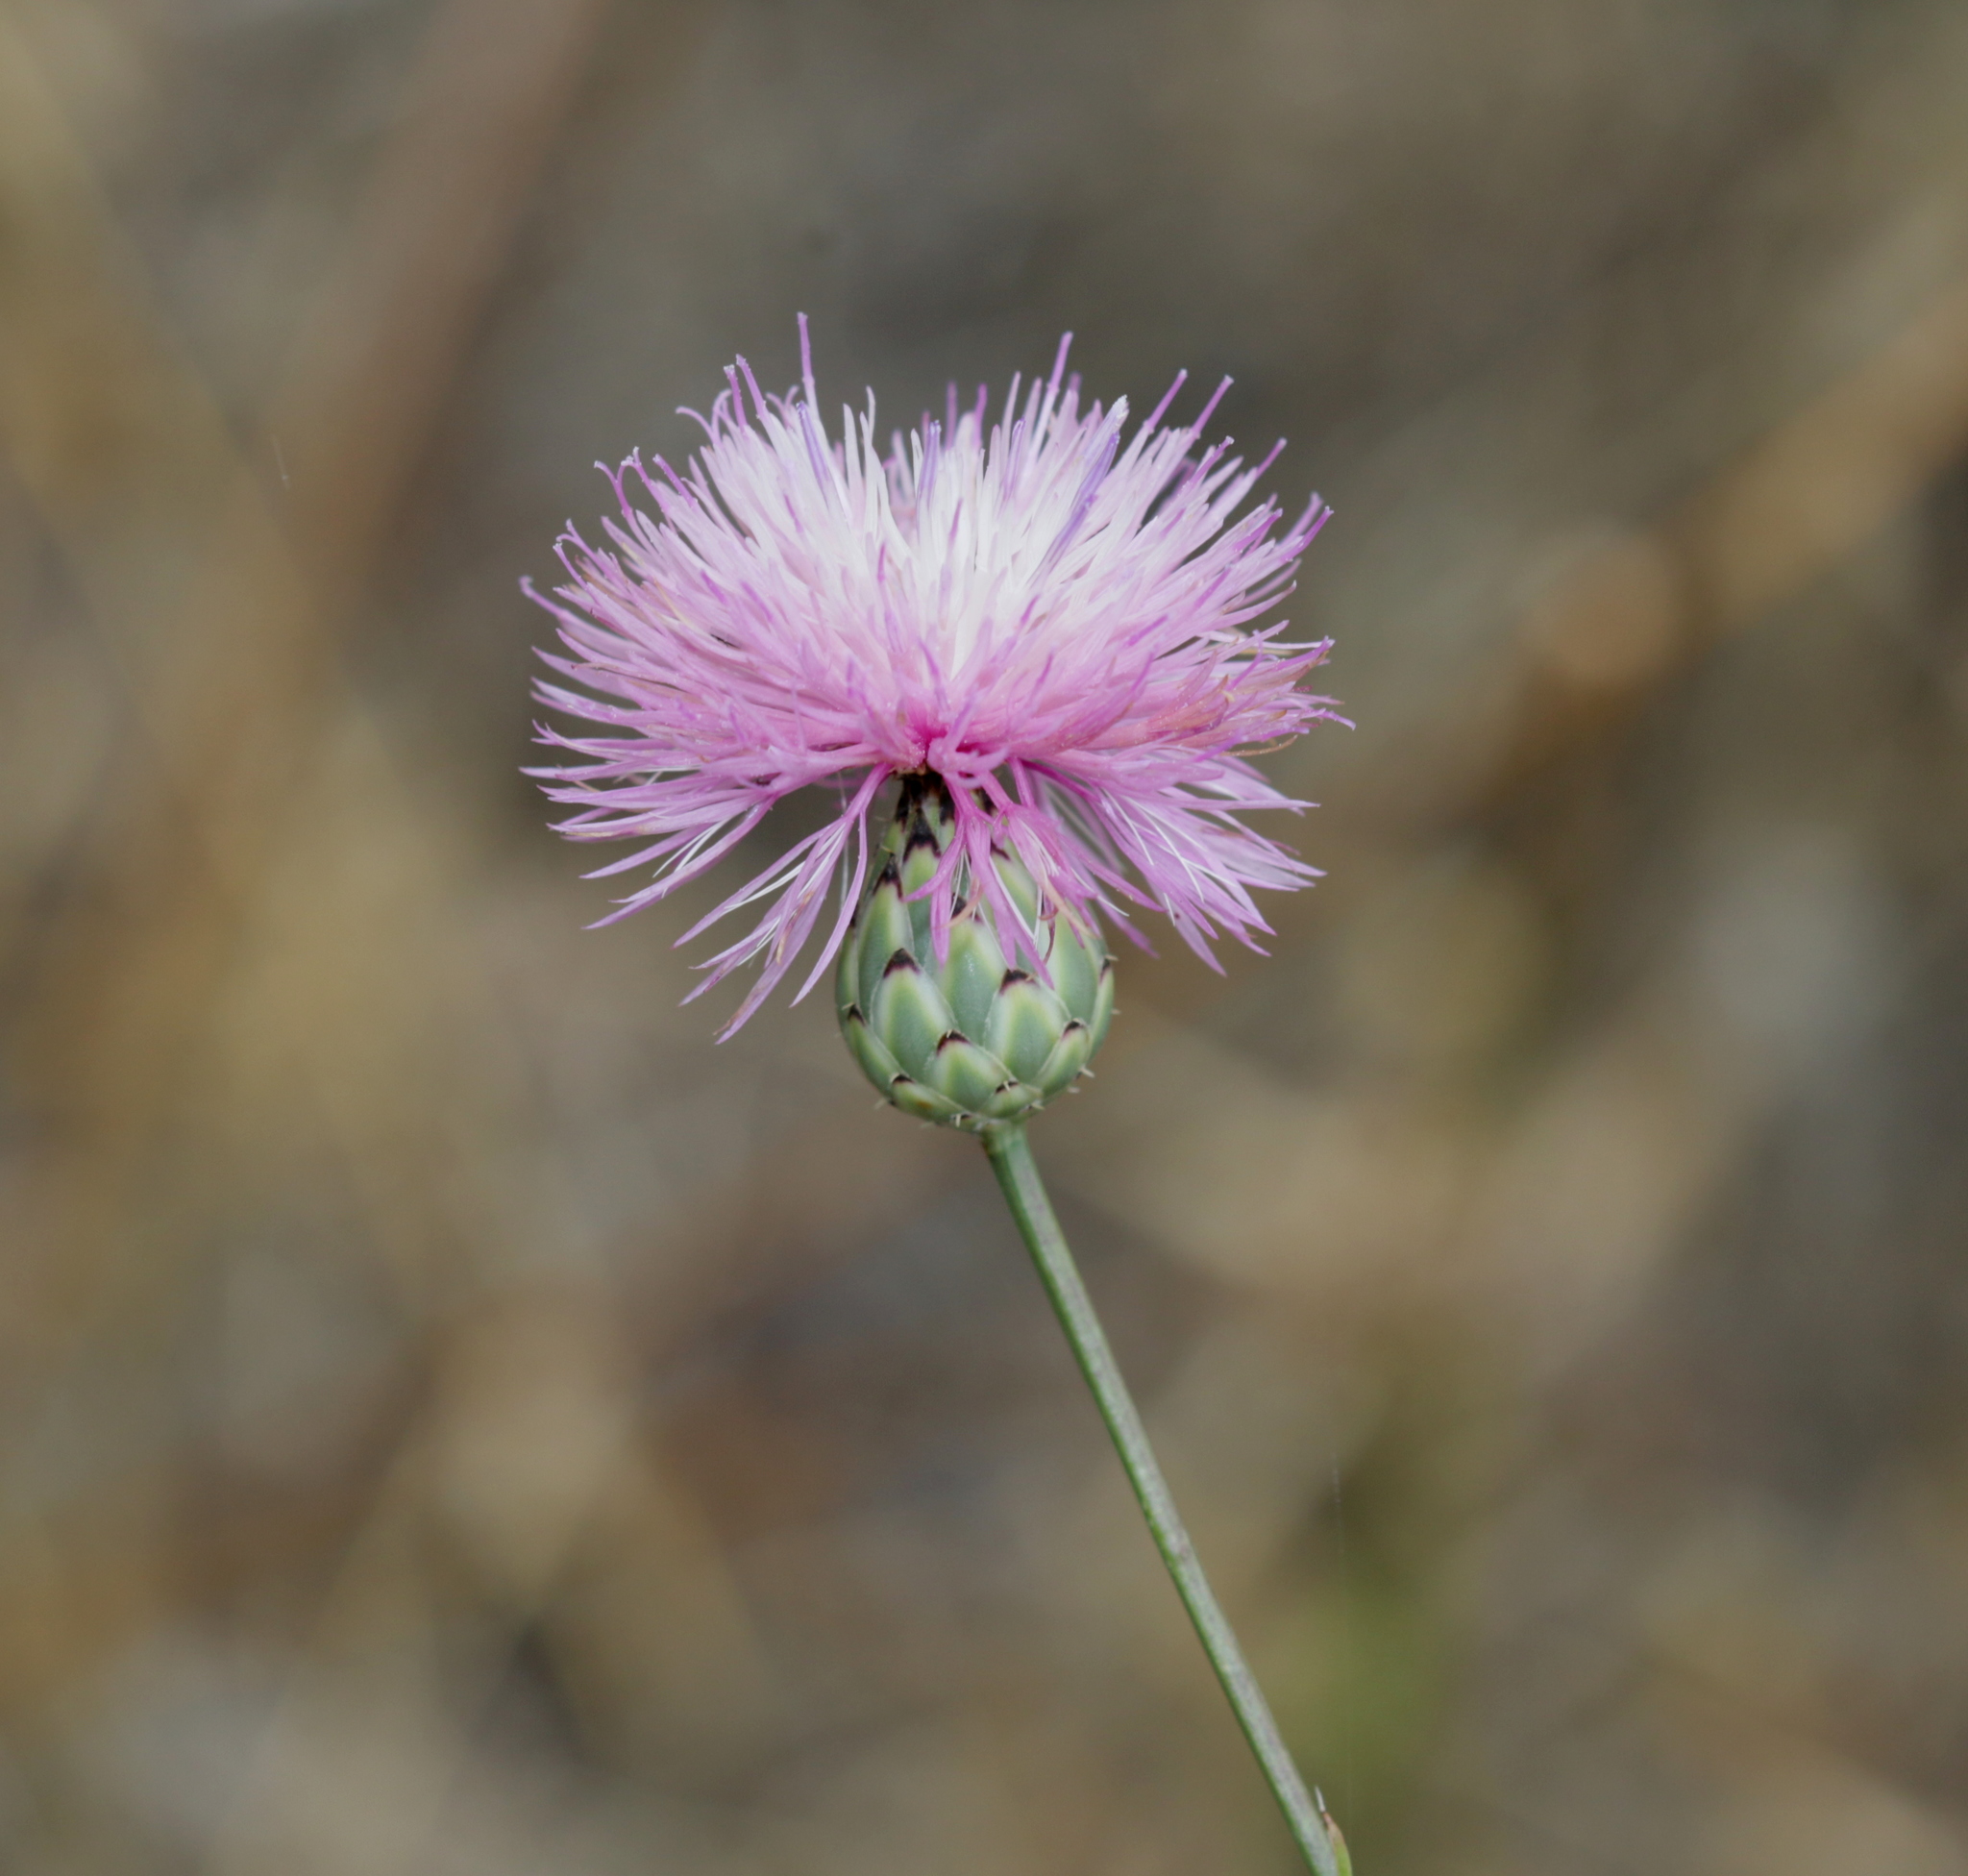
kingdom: Plantae
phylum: Tracheophyta
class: Magnoliopsida
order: Asterales
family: Asteraceae
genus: Mantisalca
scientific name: Mantisalca salmantica
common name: Dagger flower
